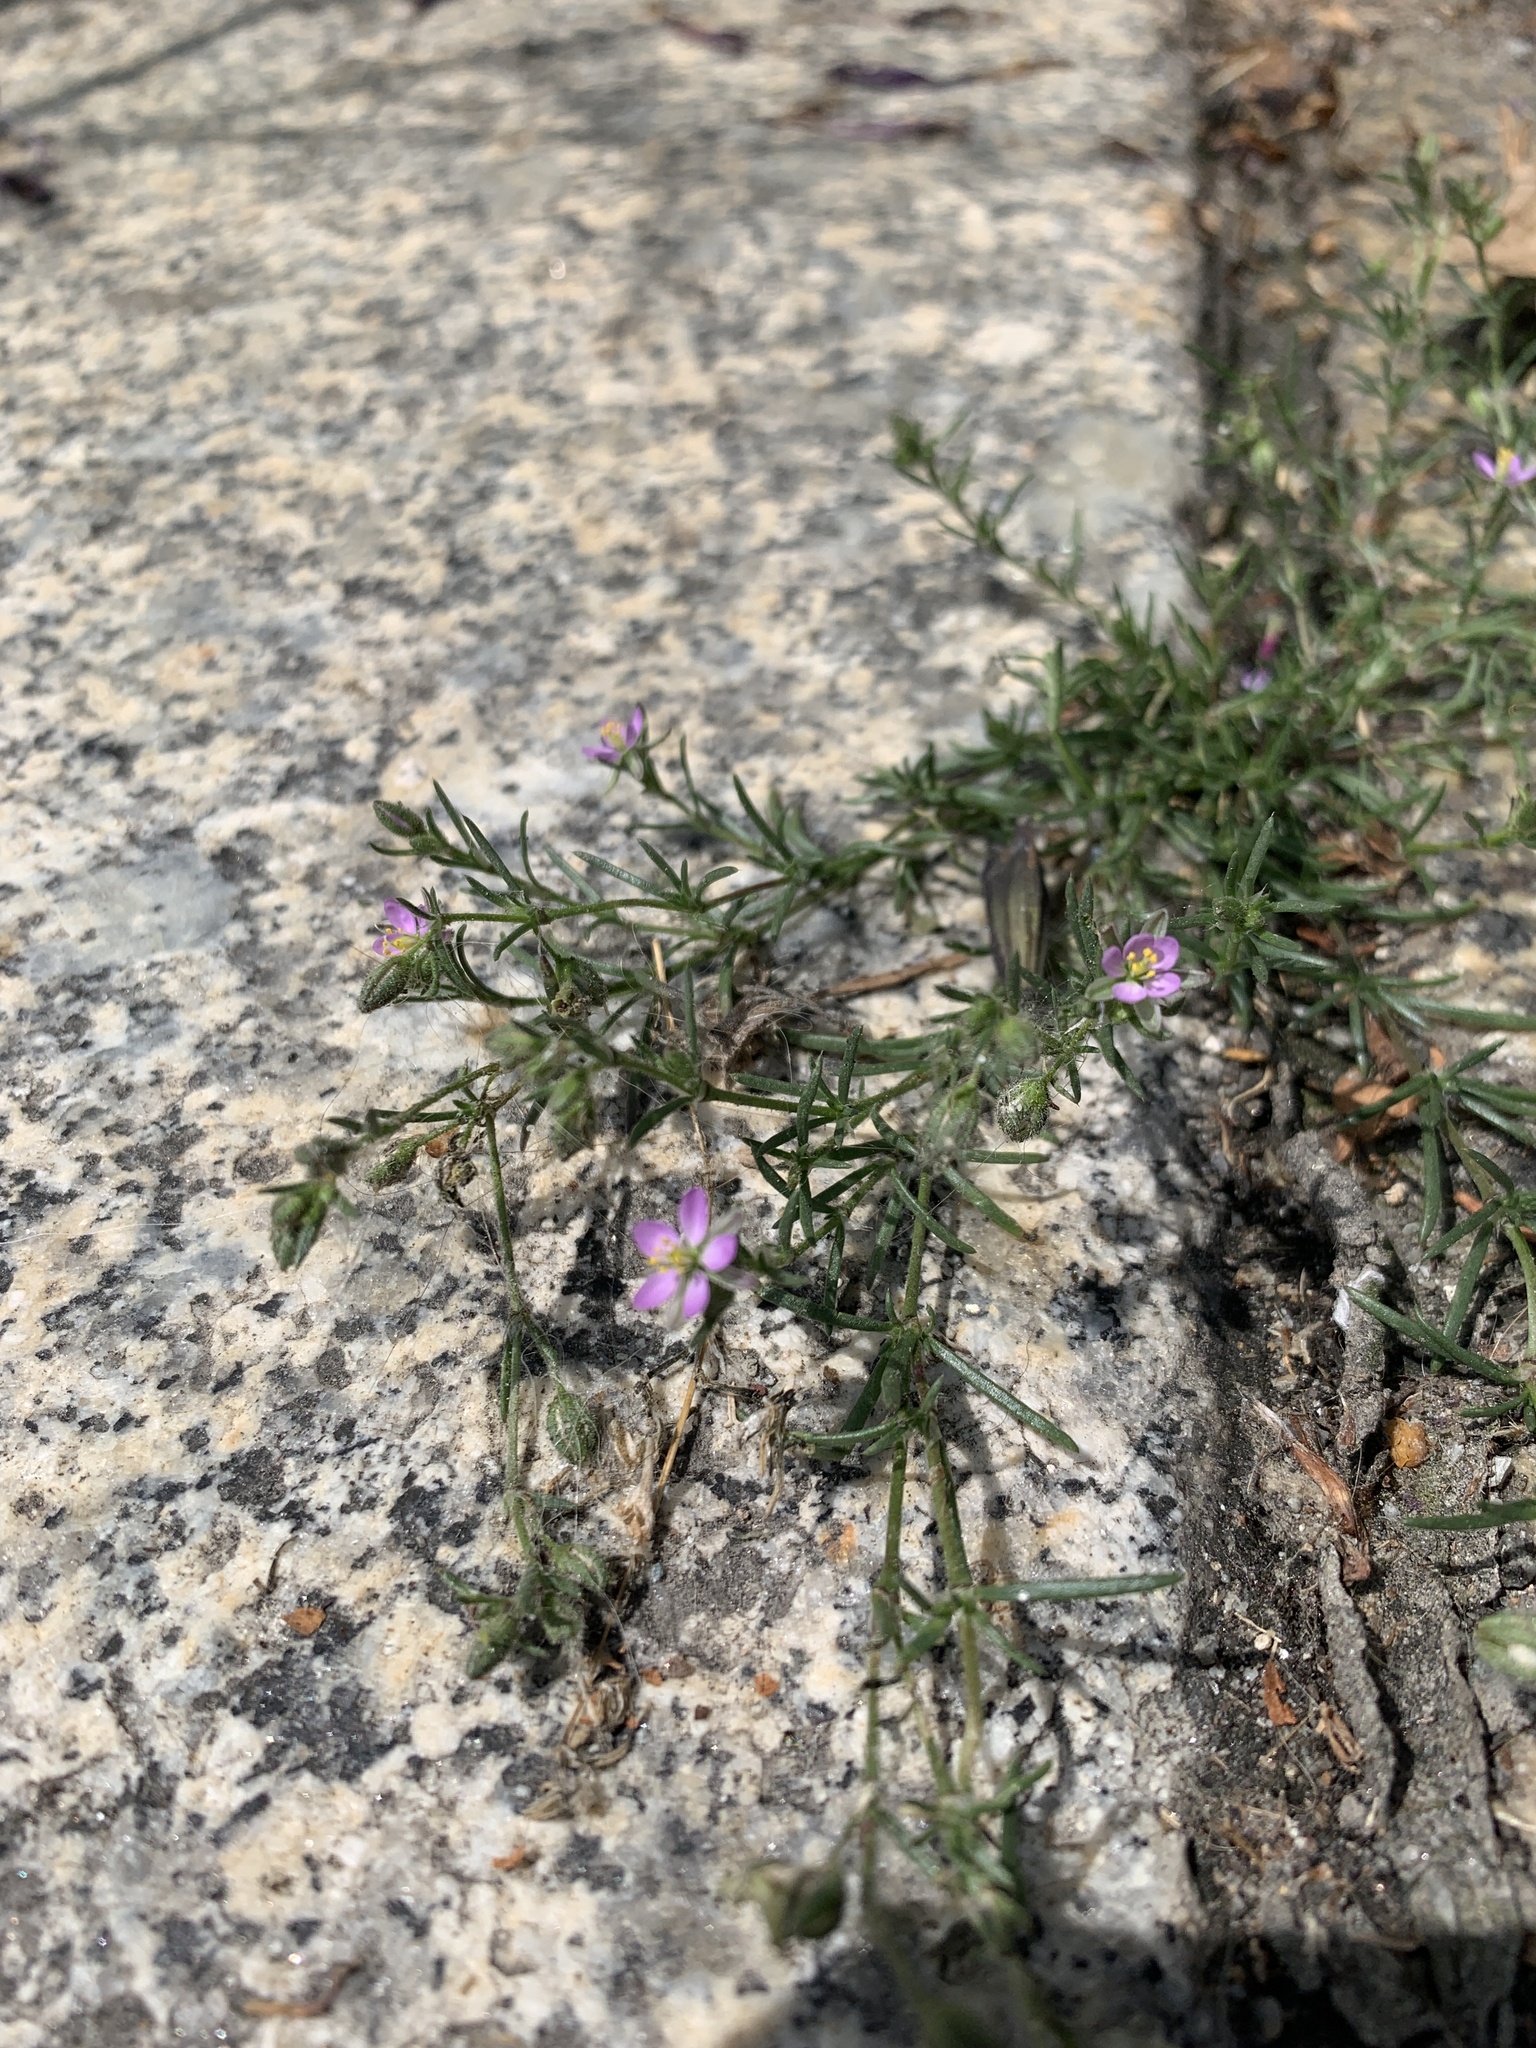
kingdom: Plantae
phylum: Tracheophyta
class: Magnoliopsida
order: Caryophyllales
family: Caryophyllaceae
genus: Spergularia
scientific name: Spergularia rubra
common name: Red sand-spurrey
